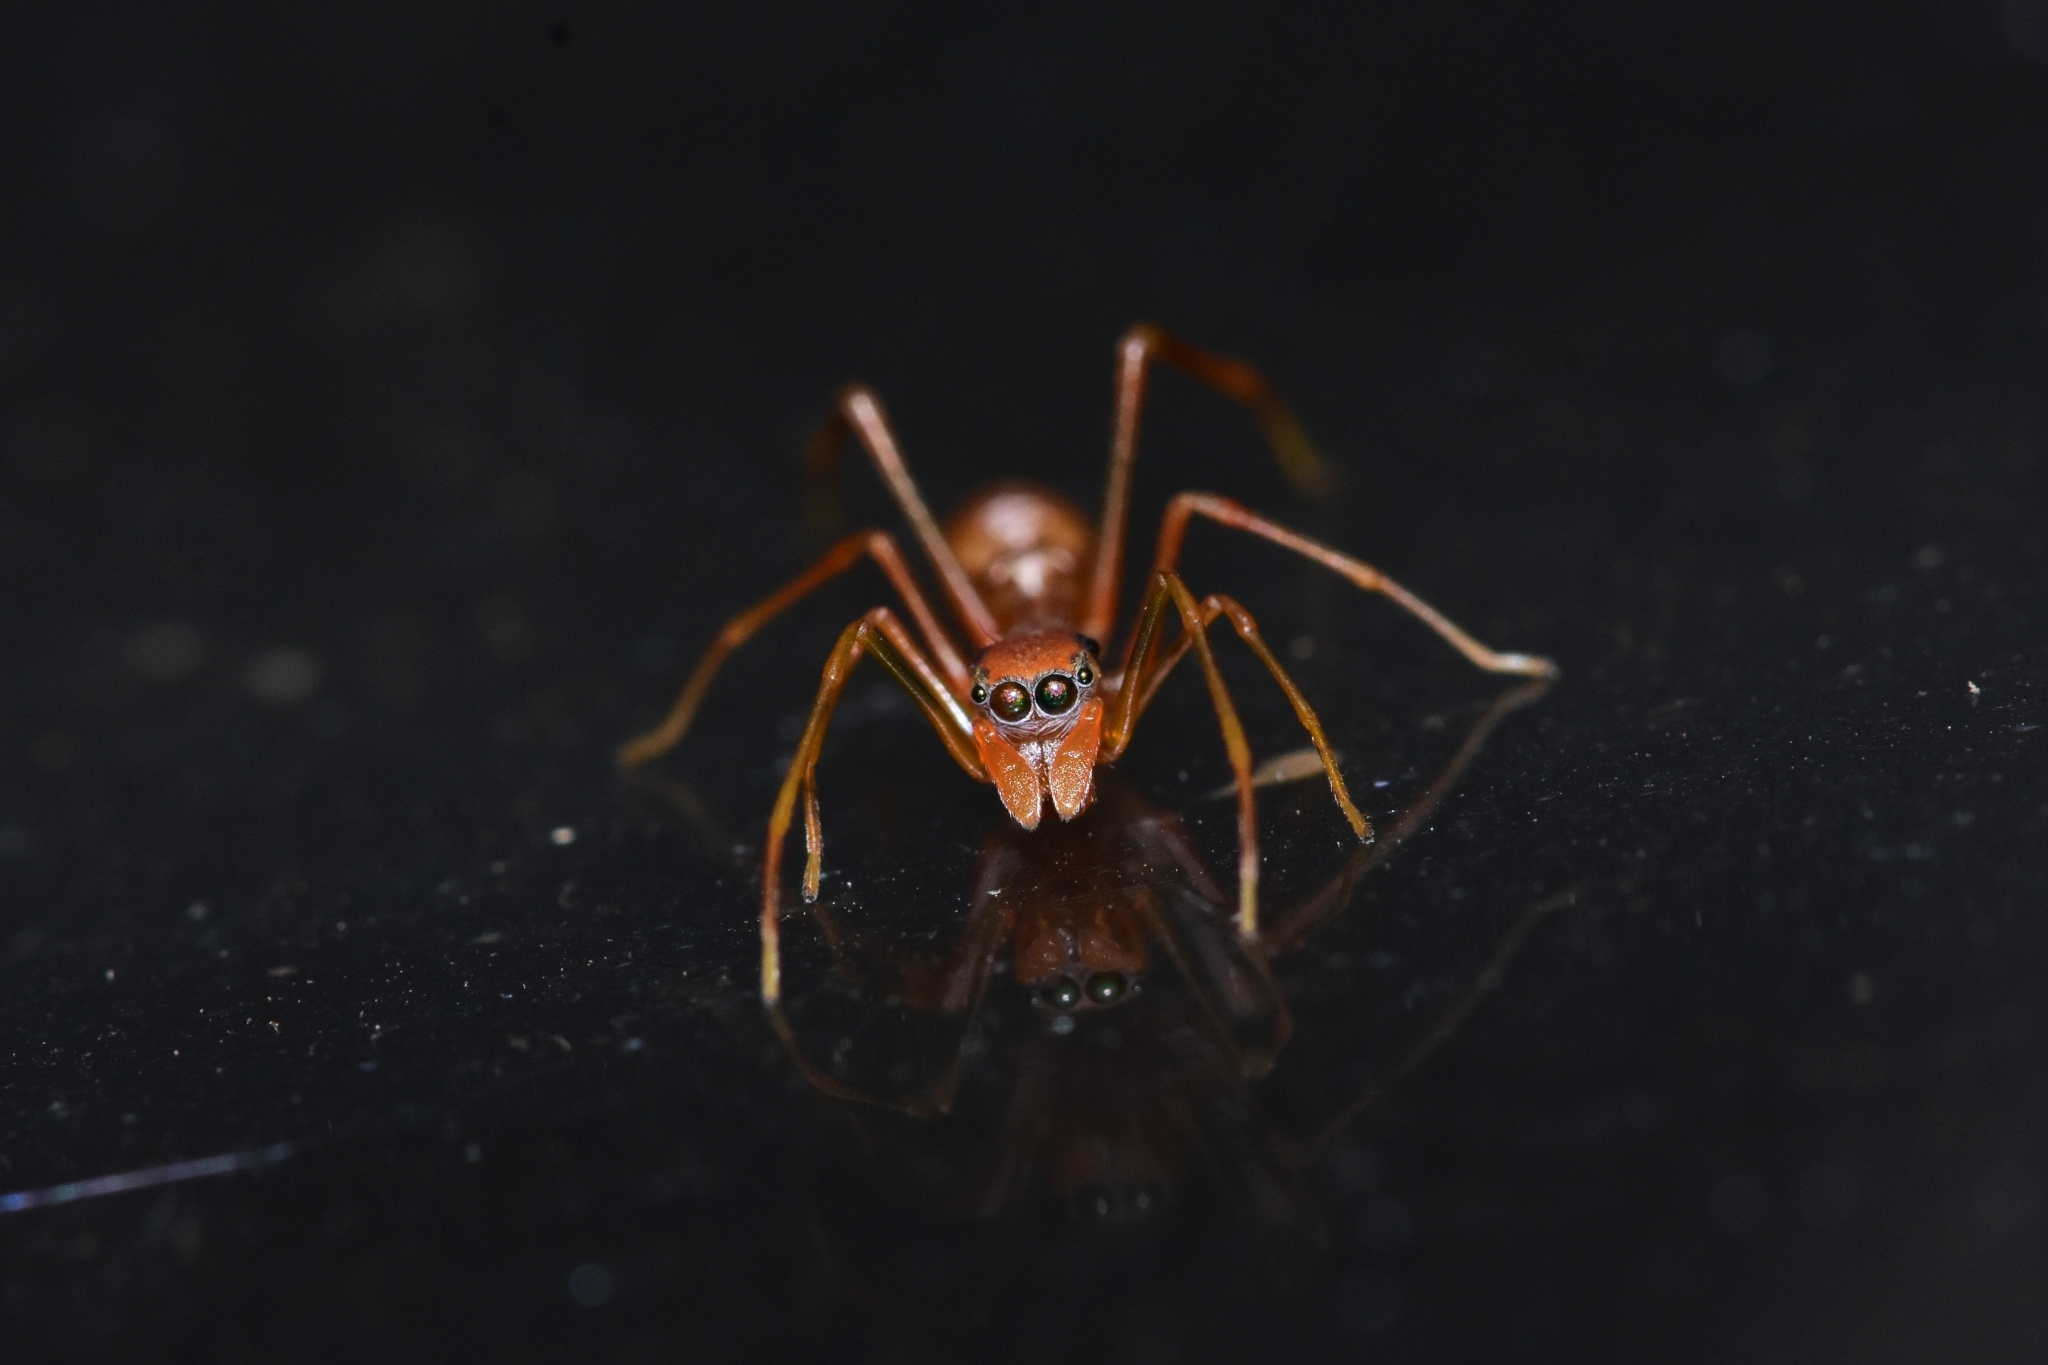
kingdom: Animalia
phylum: Arthropoda
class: Arachnida
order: Araneae
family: Salticidae
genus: Myrmaplata
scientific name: Myrmaplata plataleoides
